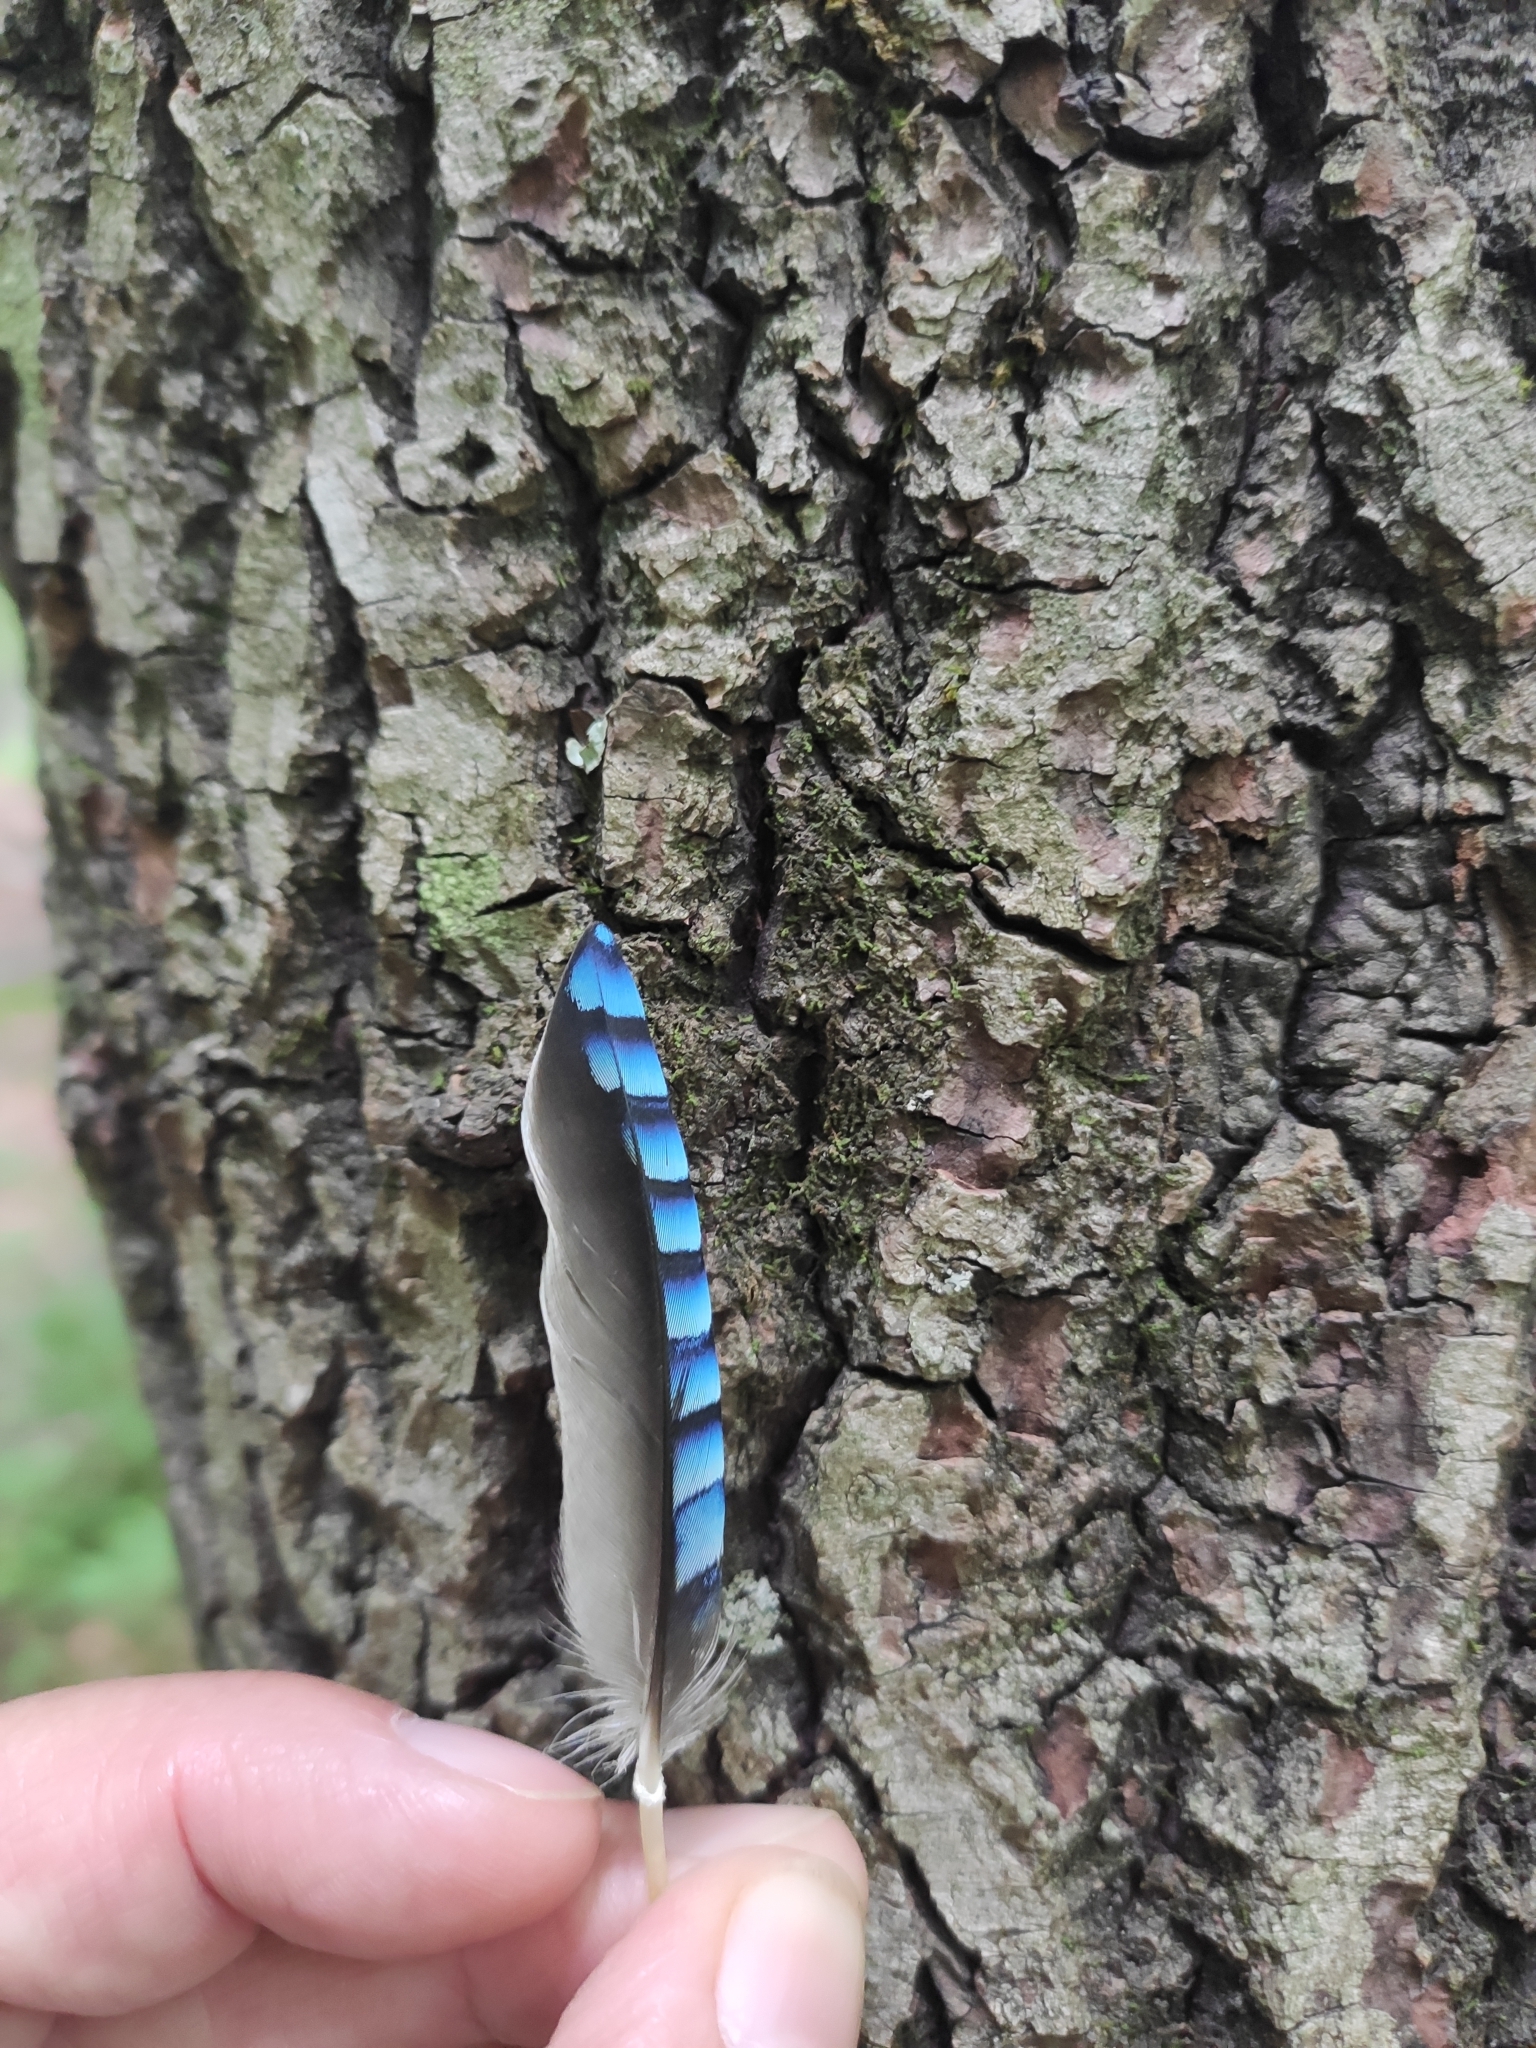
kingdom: Animalia
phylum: Chordata
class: Aves
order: Passeriformes
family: Corvidae
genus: Garrulus
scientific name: Garrulus glandarius
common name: Eurasian jay
